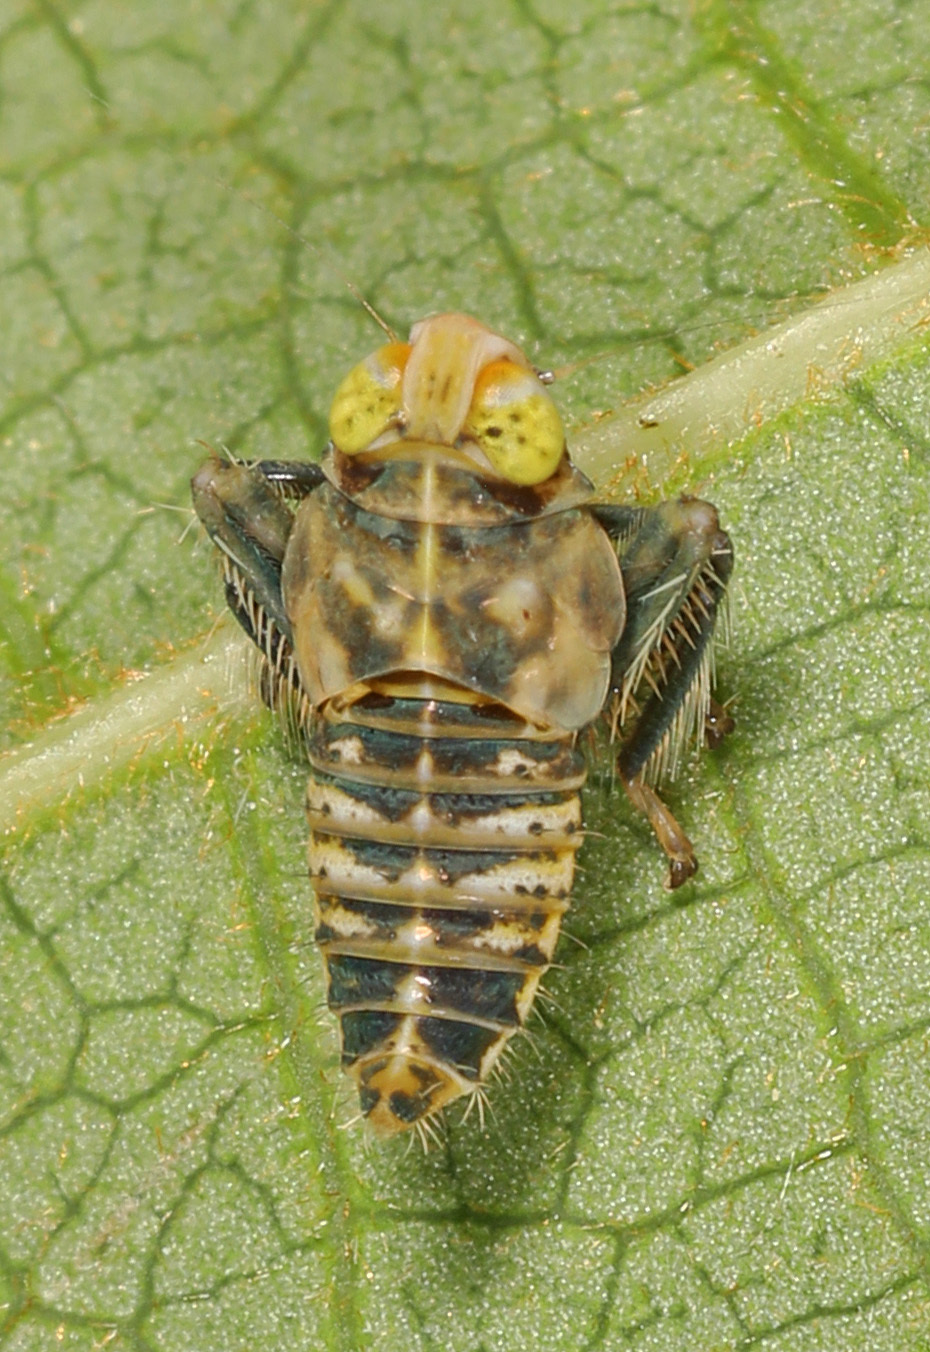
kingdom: Animalia
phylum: Arthropoda
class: Insecta
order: Hemiptera
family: Cicadellidae
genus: Jikradia
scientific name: Jikradia olitoria
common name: Coppery leafhopper
